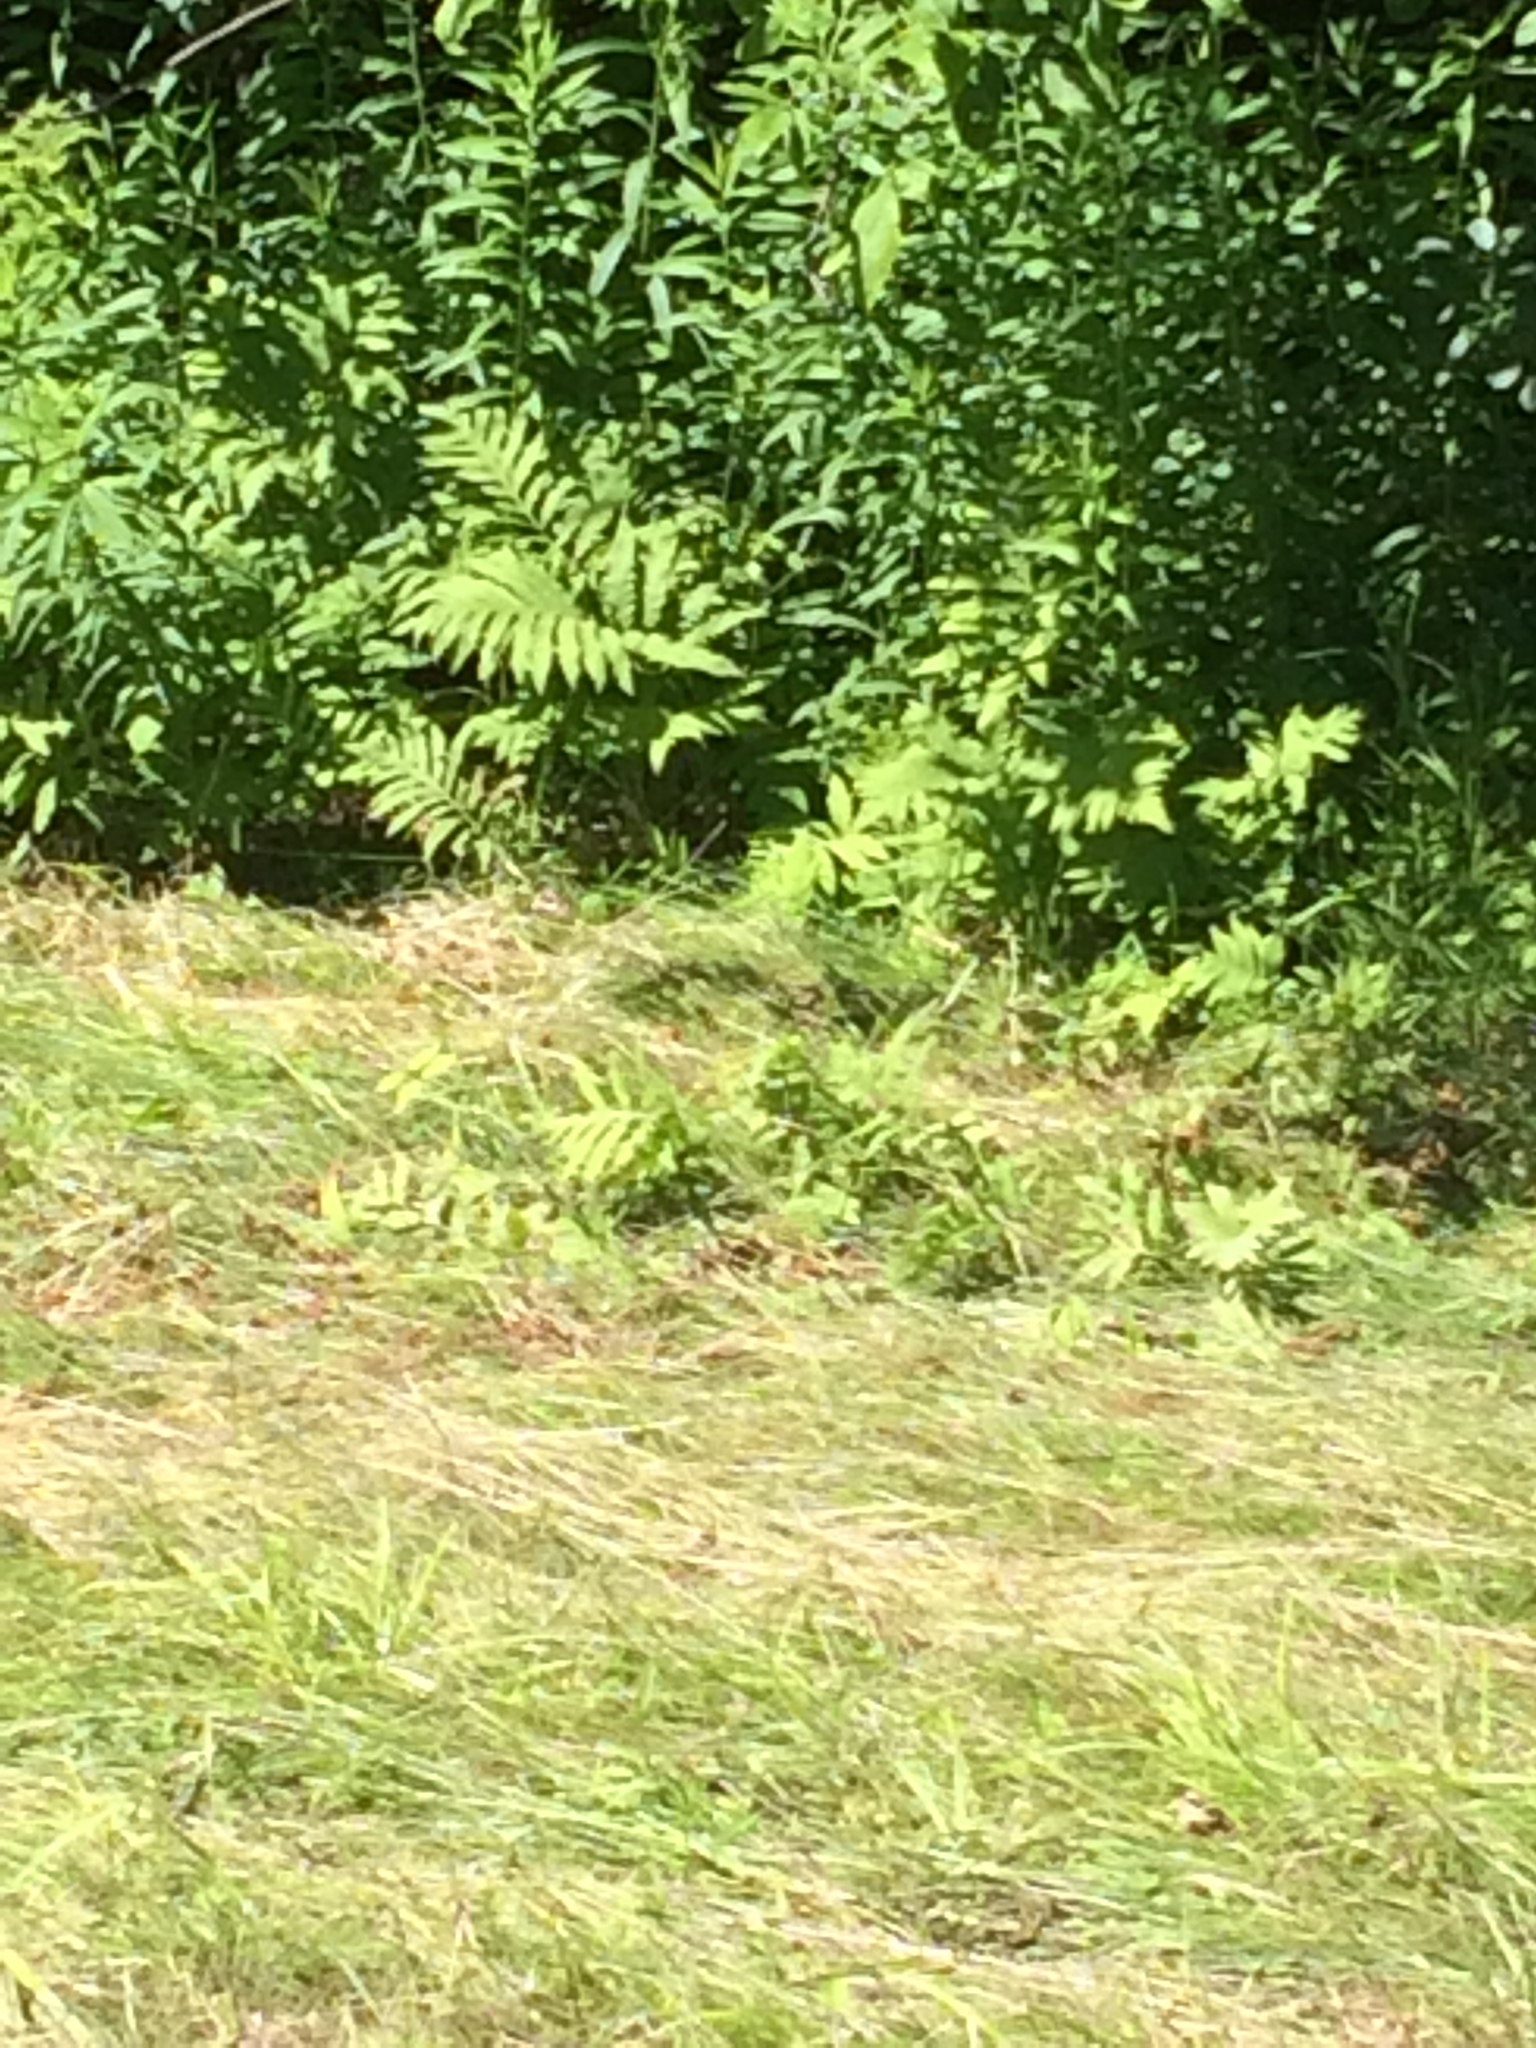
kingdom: Plantae
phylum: Tracheophyta
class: Polypodiopsida
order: Polypodiales
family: Onocleaceae
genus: Onoclea
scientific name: Onoclea sensibilis
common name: Sensitive fern
